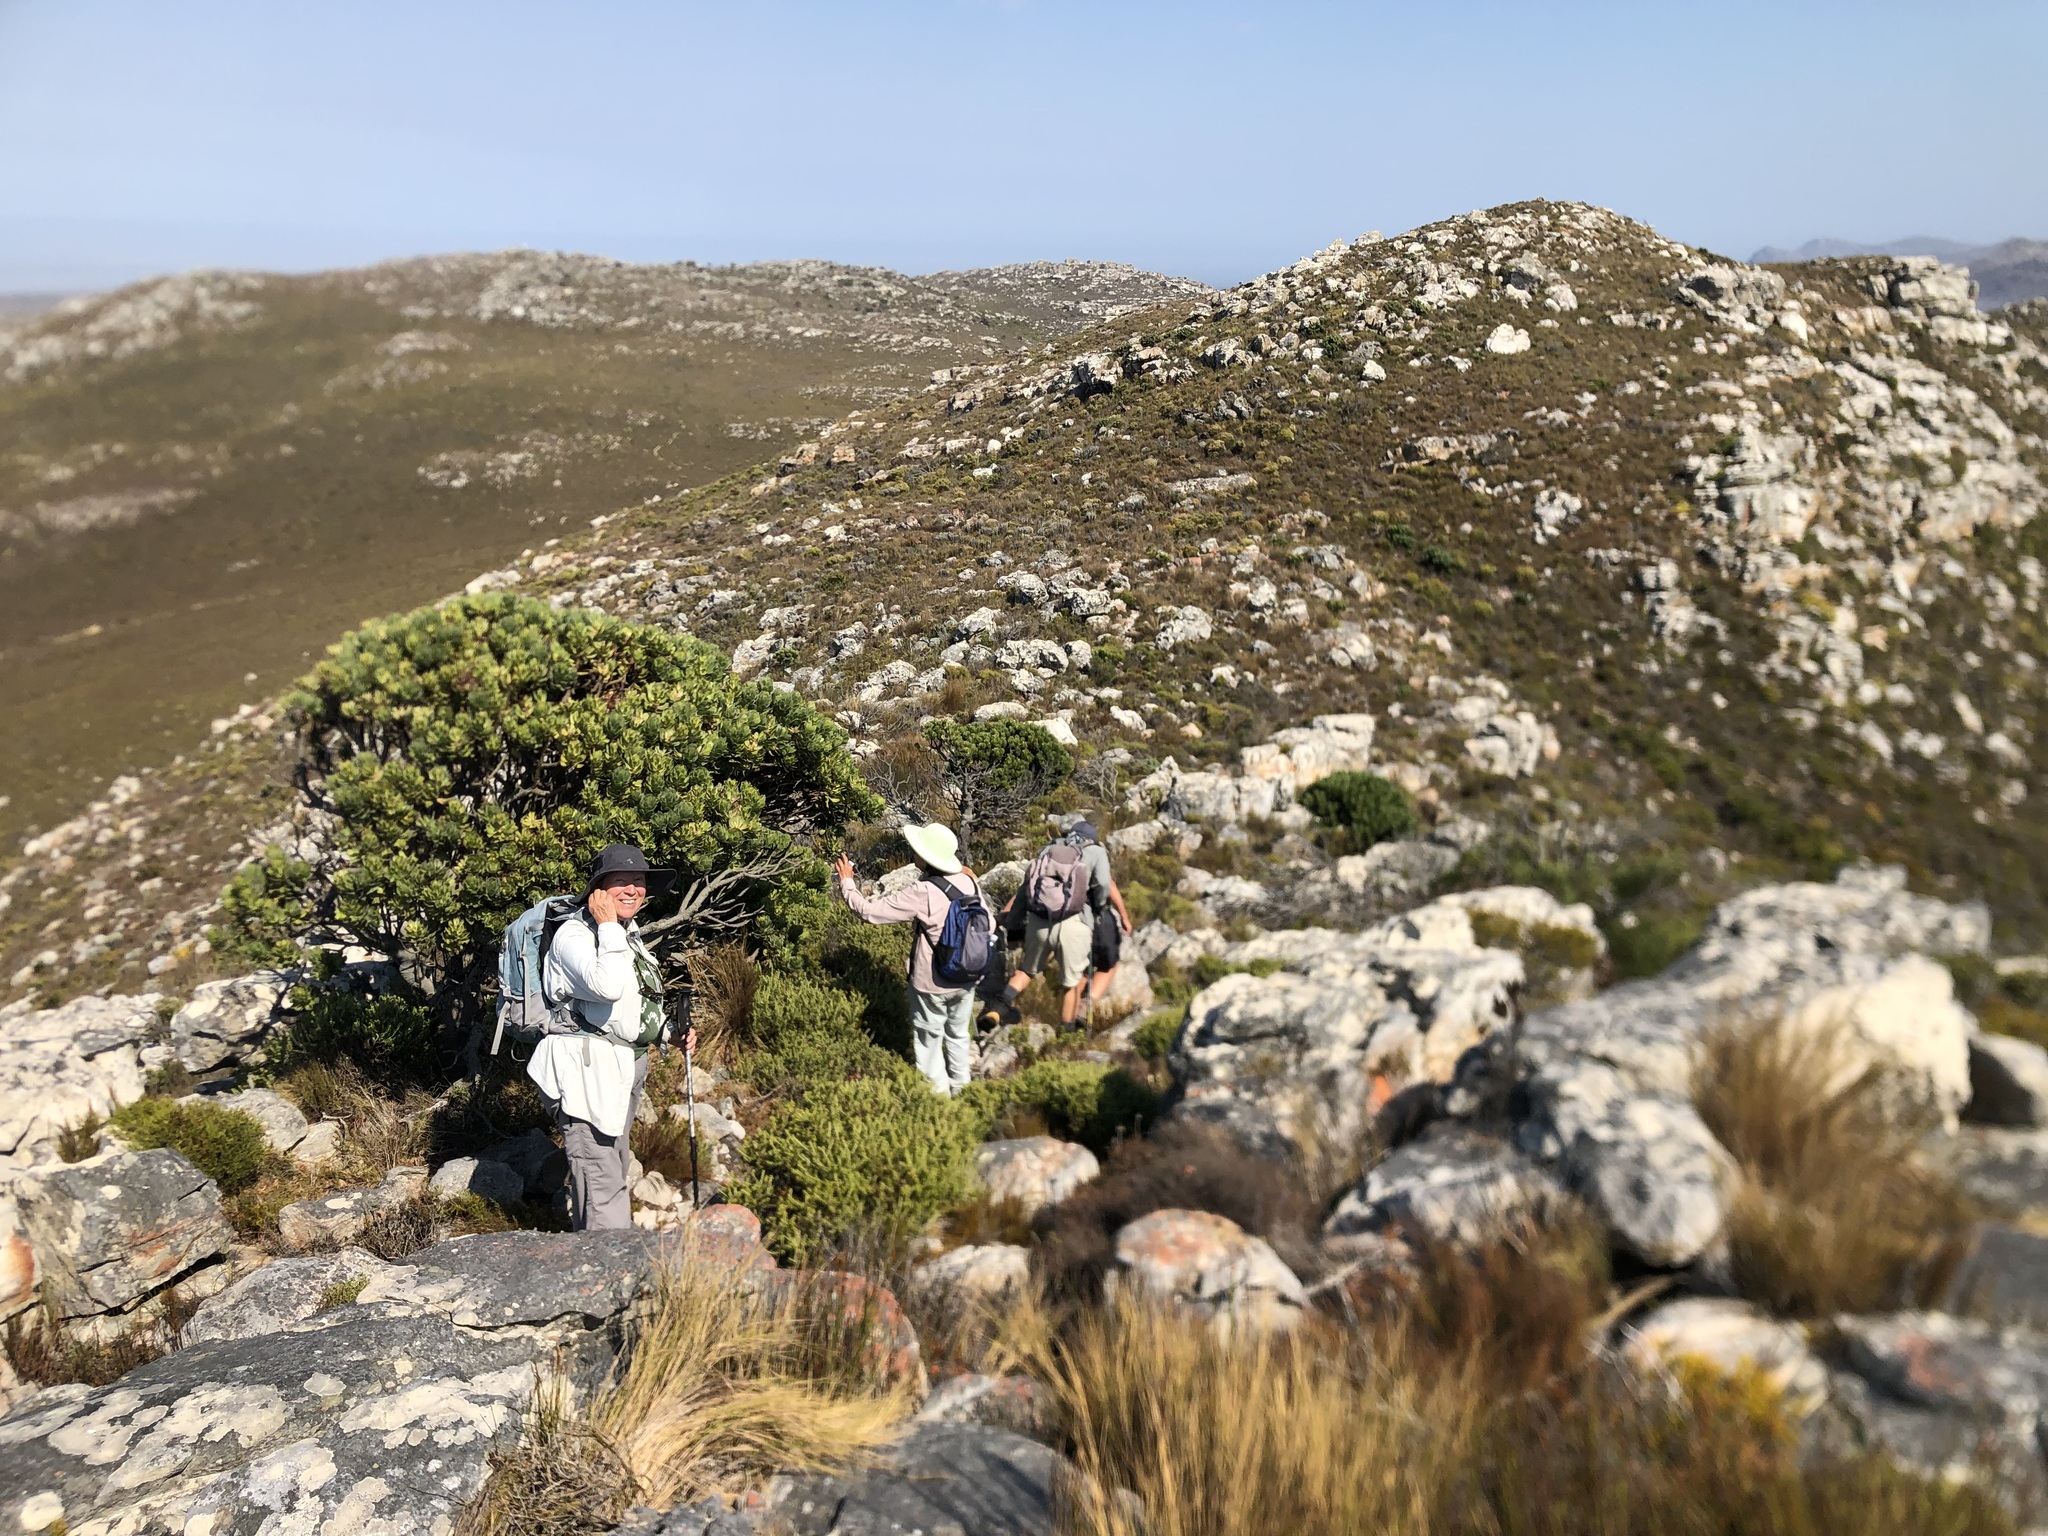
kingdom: Plantae
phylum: Tracheophyta
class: Magnoliopsida
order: Proteales
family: Proteaceae
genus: Leucospermum
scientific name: Leucospermum conocarpodendron
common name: Tree pincushion
